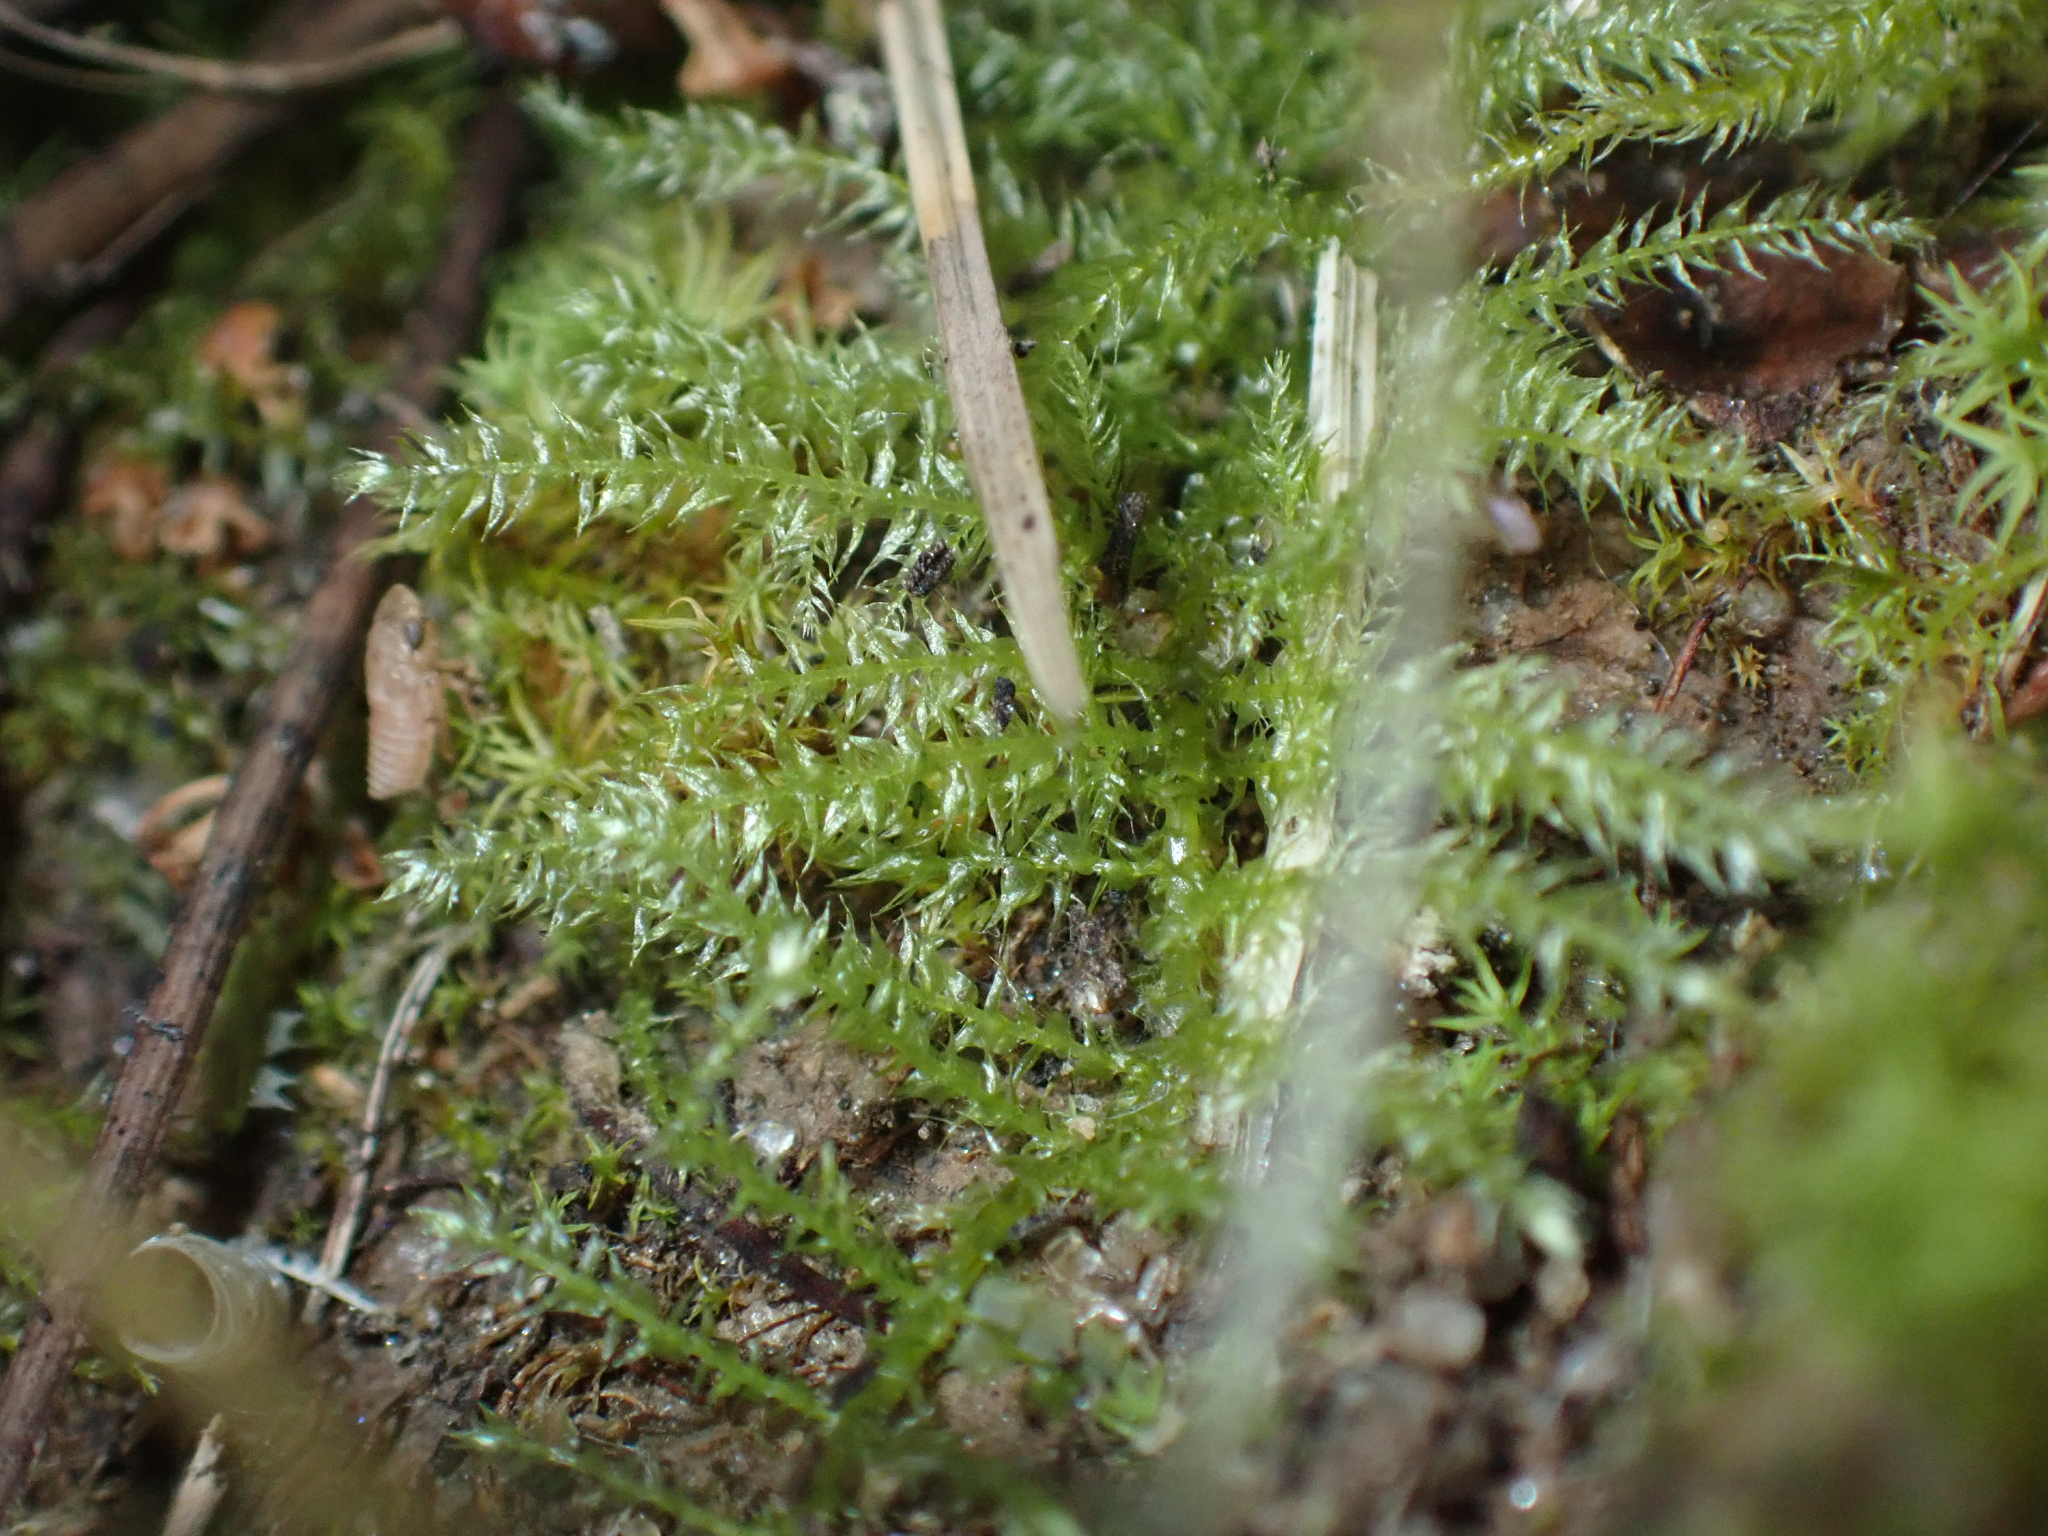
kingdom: Plantae
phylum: Bryophyta
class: Bryopsida
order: Hypnales
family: Brachytheciaceae
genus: Kindbergia
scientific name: Kindbergia praelonga
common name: Slender beaked moss
